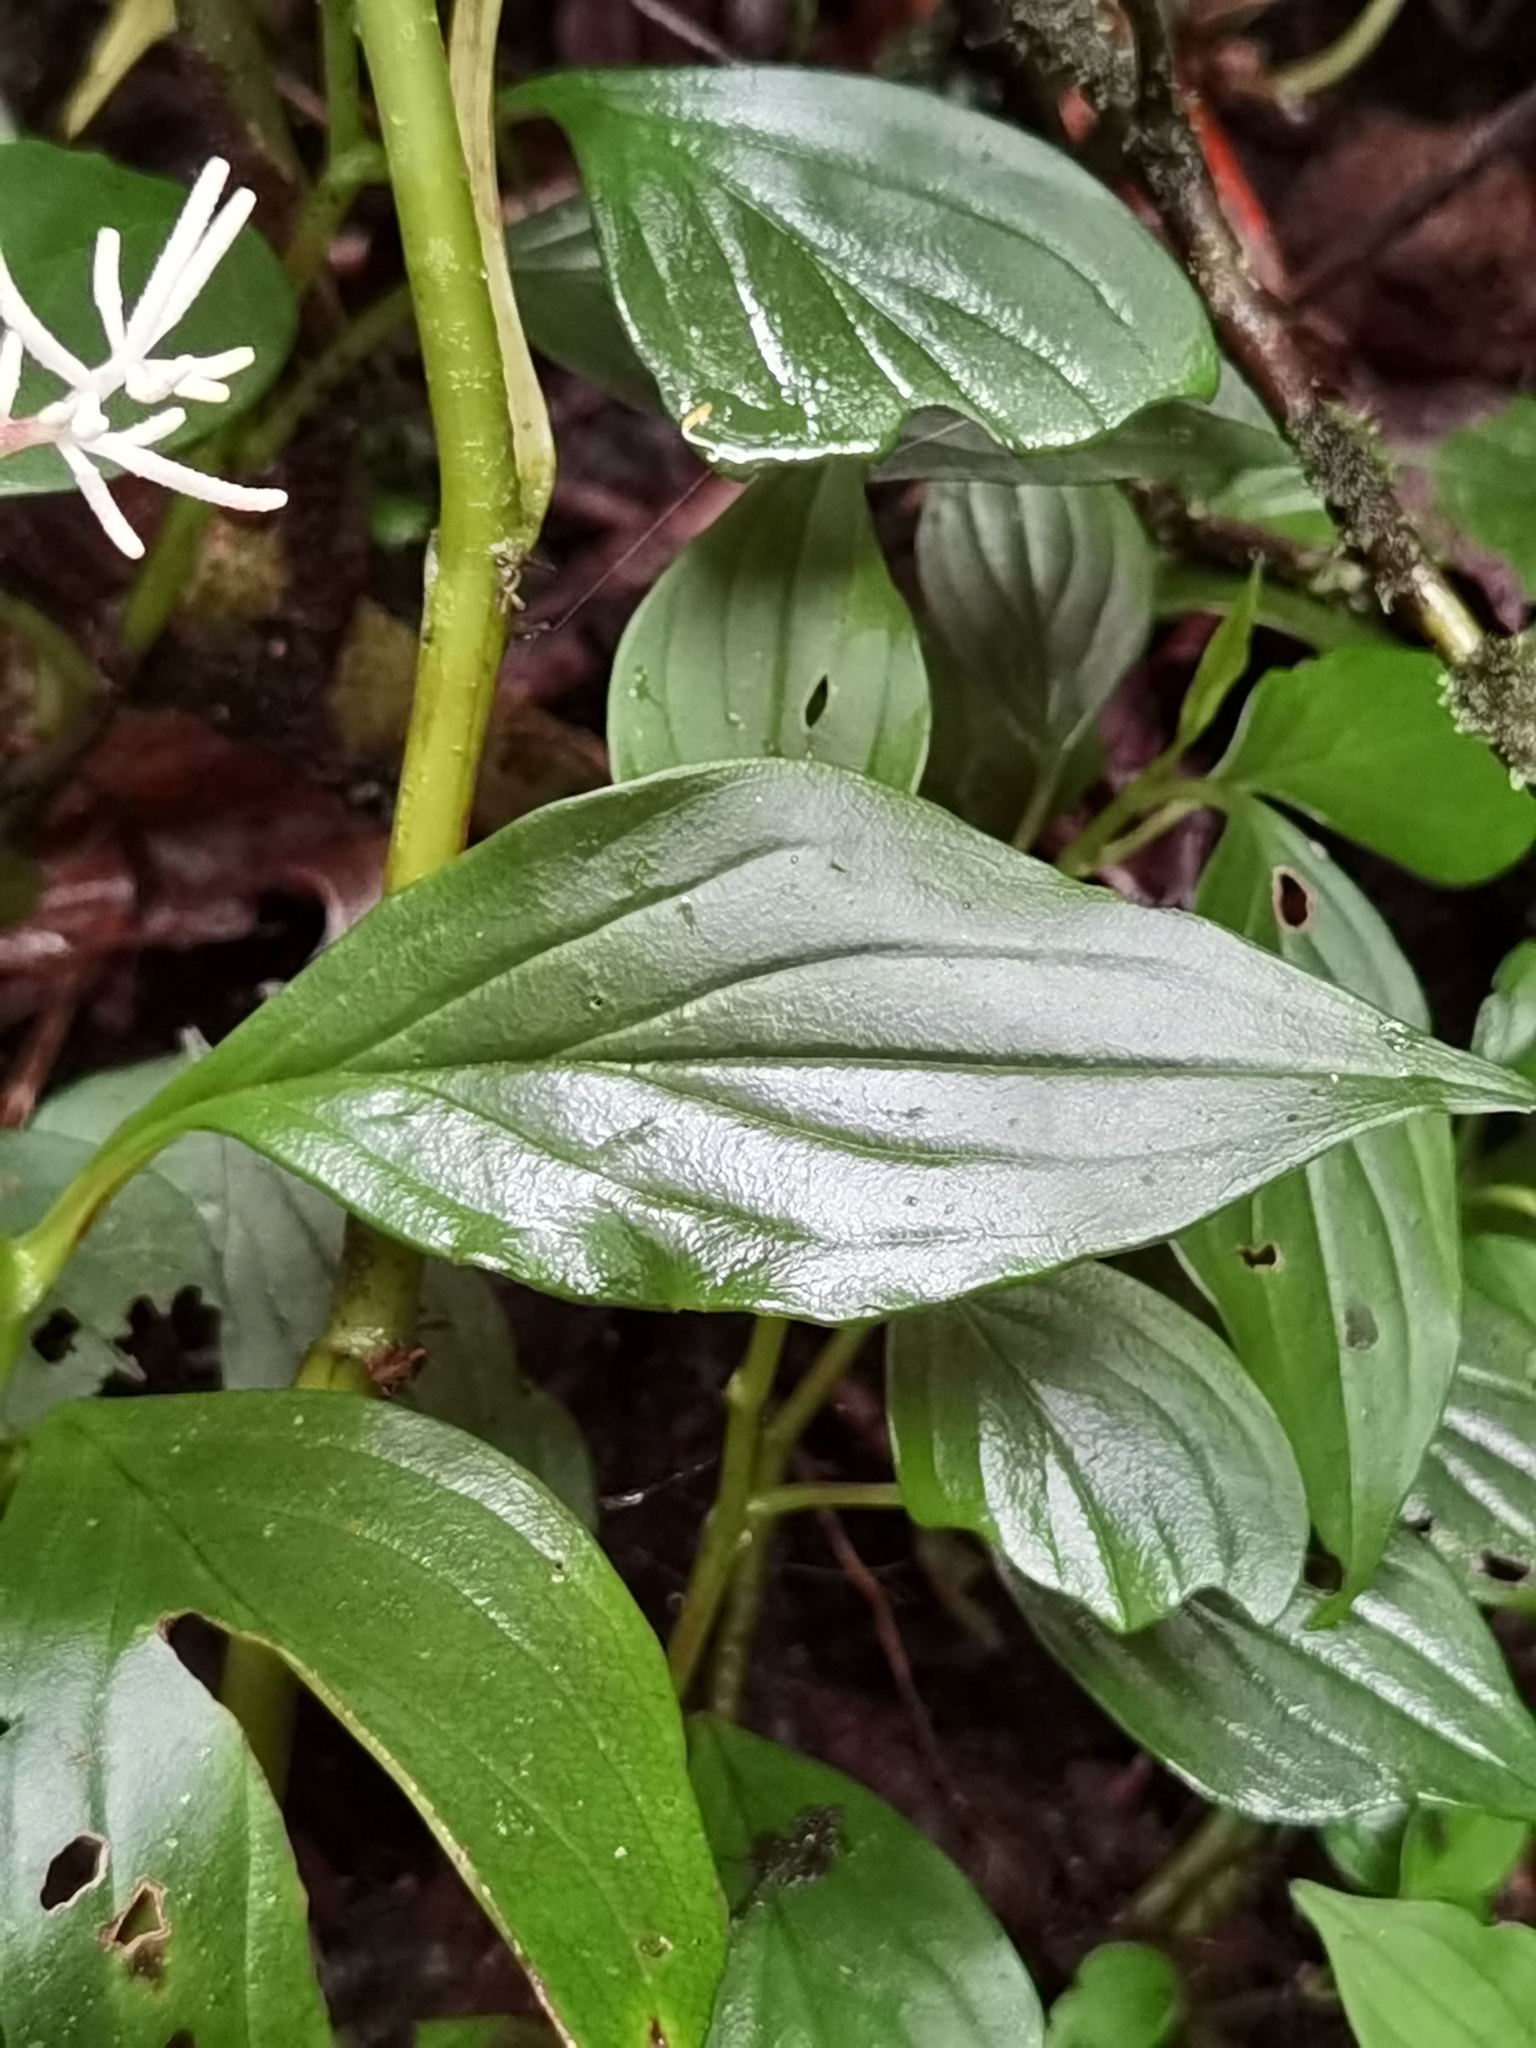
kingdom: Plantae
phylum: Tracheophyta
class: Magnoliopsida
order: Piperales
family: Piperaceae
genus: Peperomia
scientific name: Peperomia poasana
